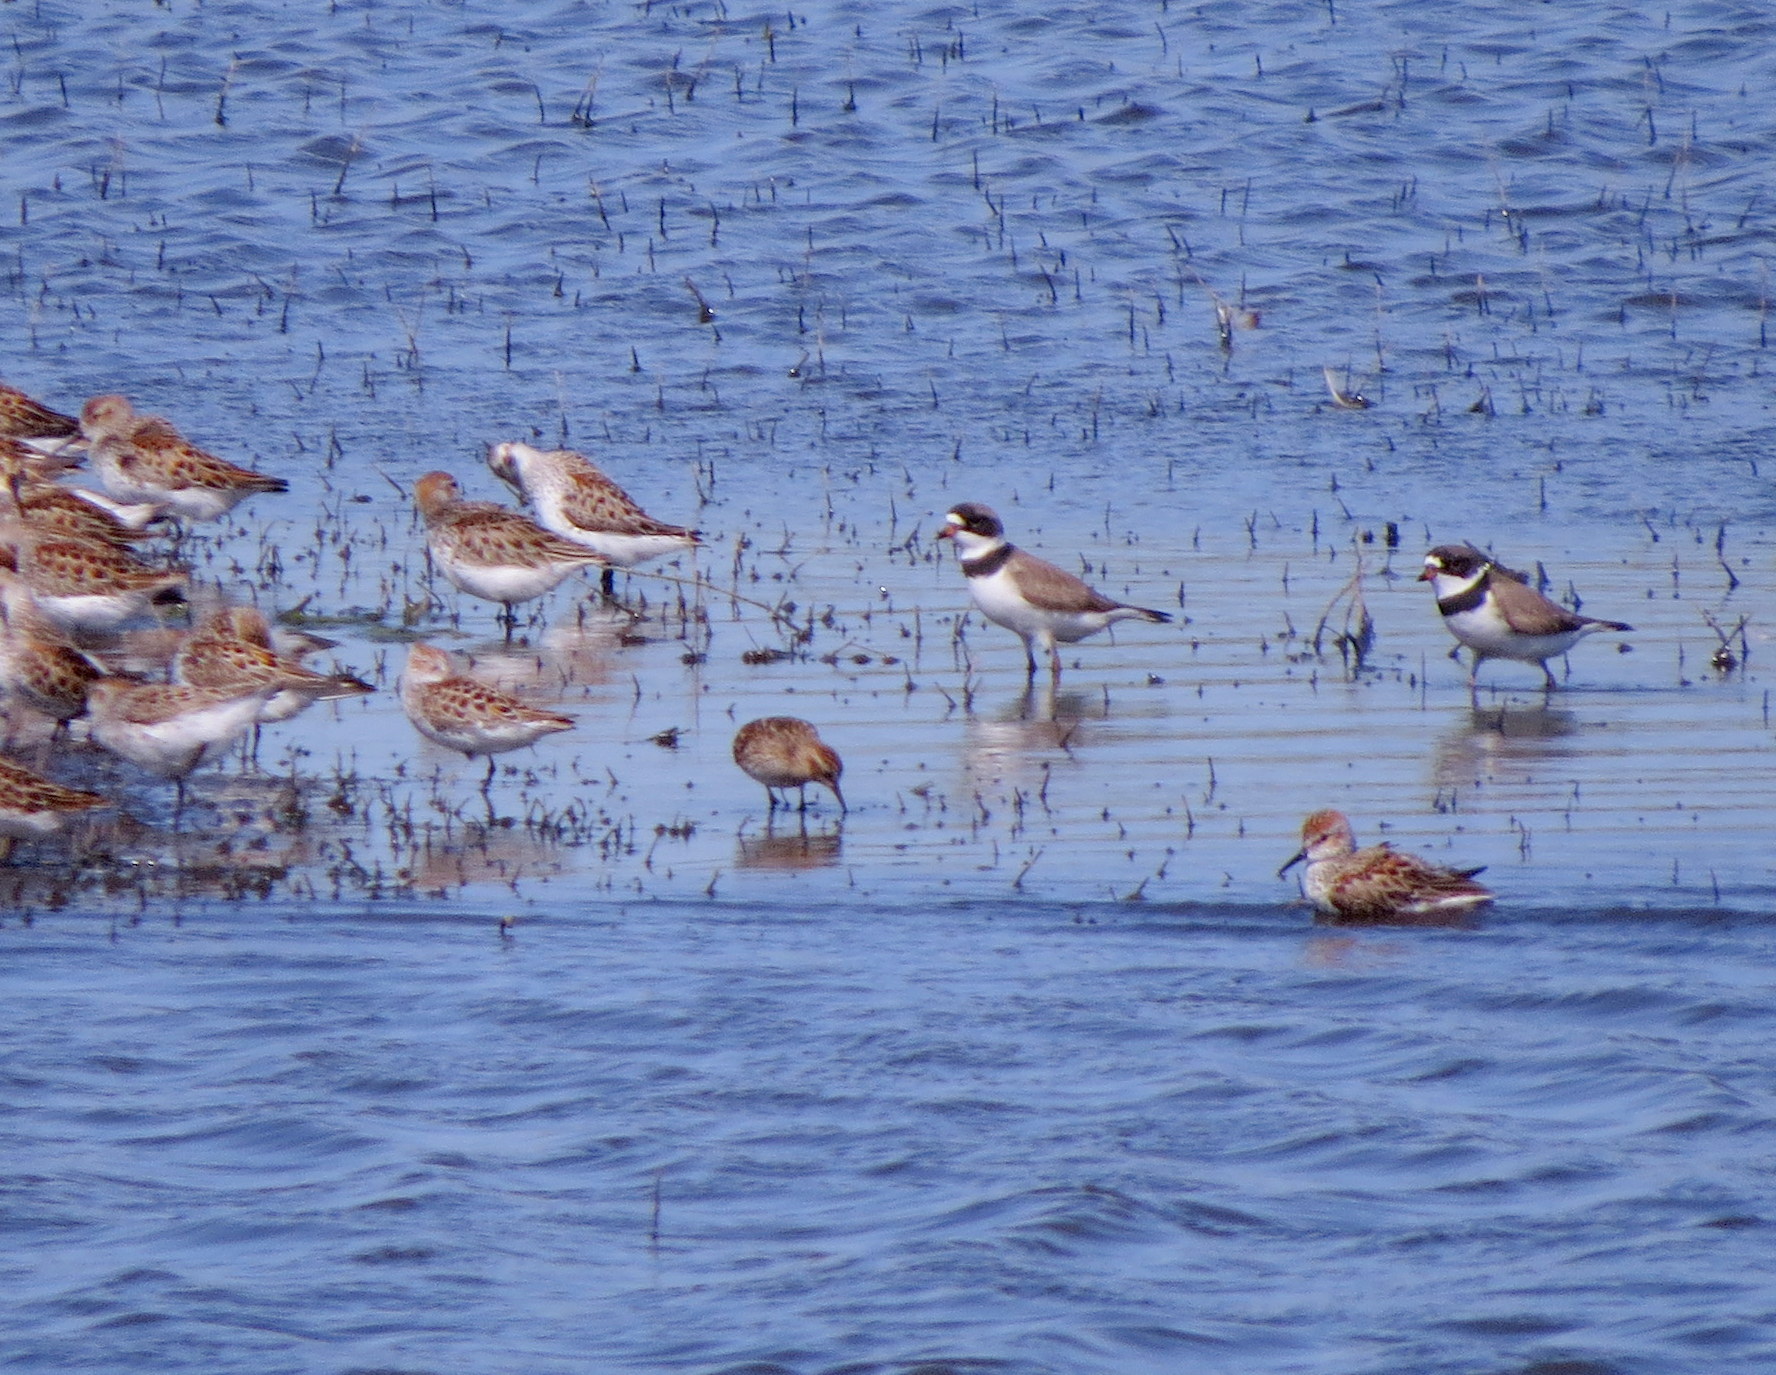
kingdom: Animalia
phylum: Chordata
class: Aves
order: Charadriiformes
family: Charadriidae
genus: Charadrius
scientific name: Charadrius semipalmatus
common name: Semipalmated plover
